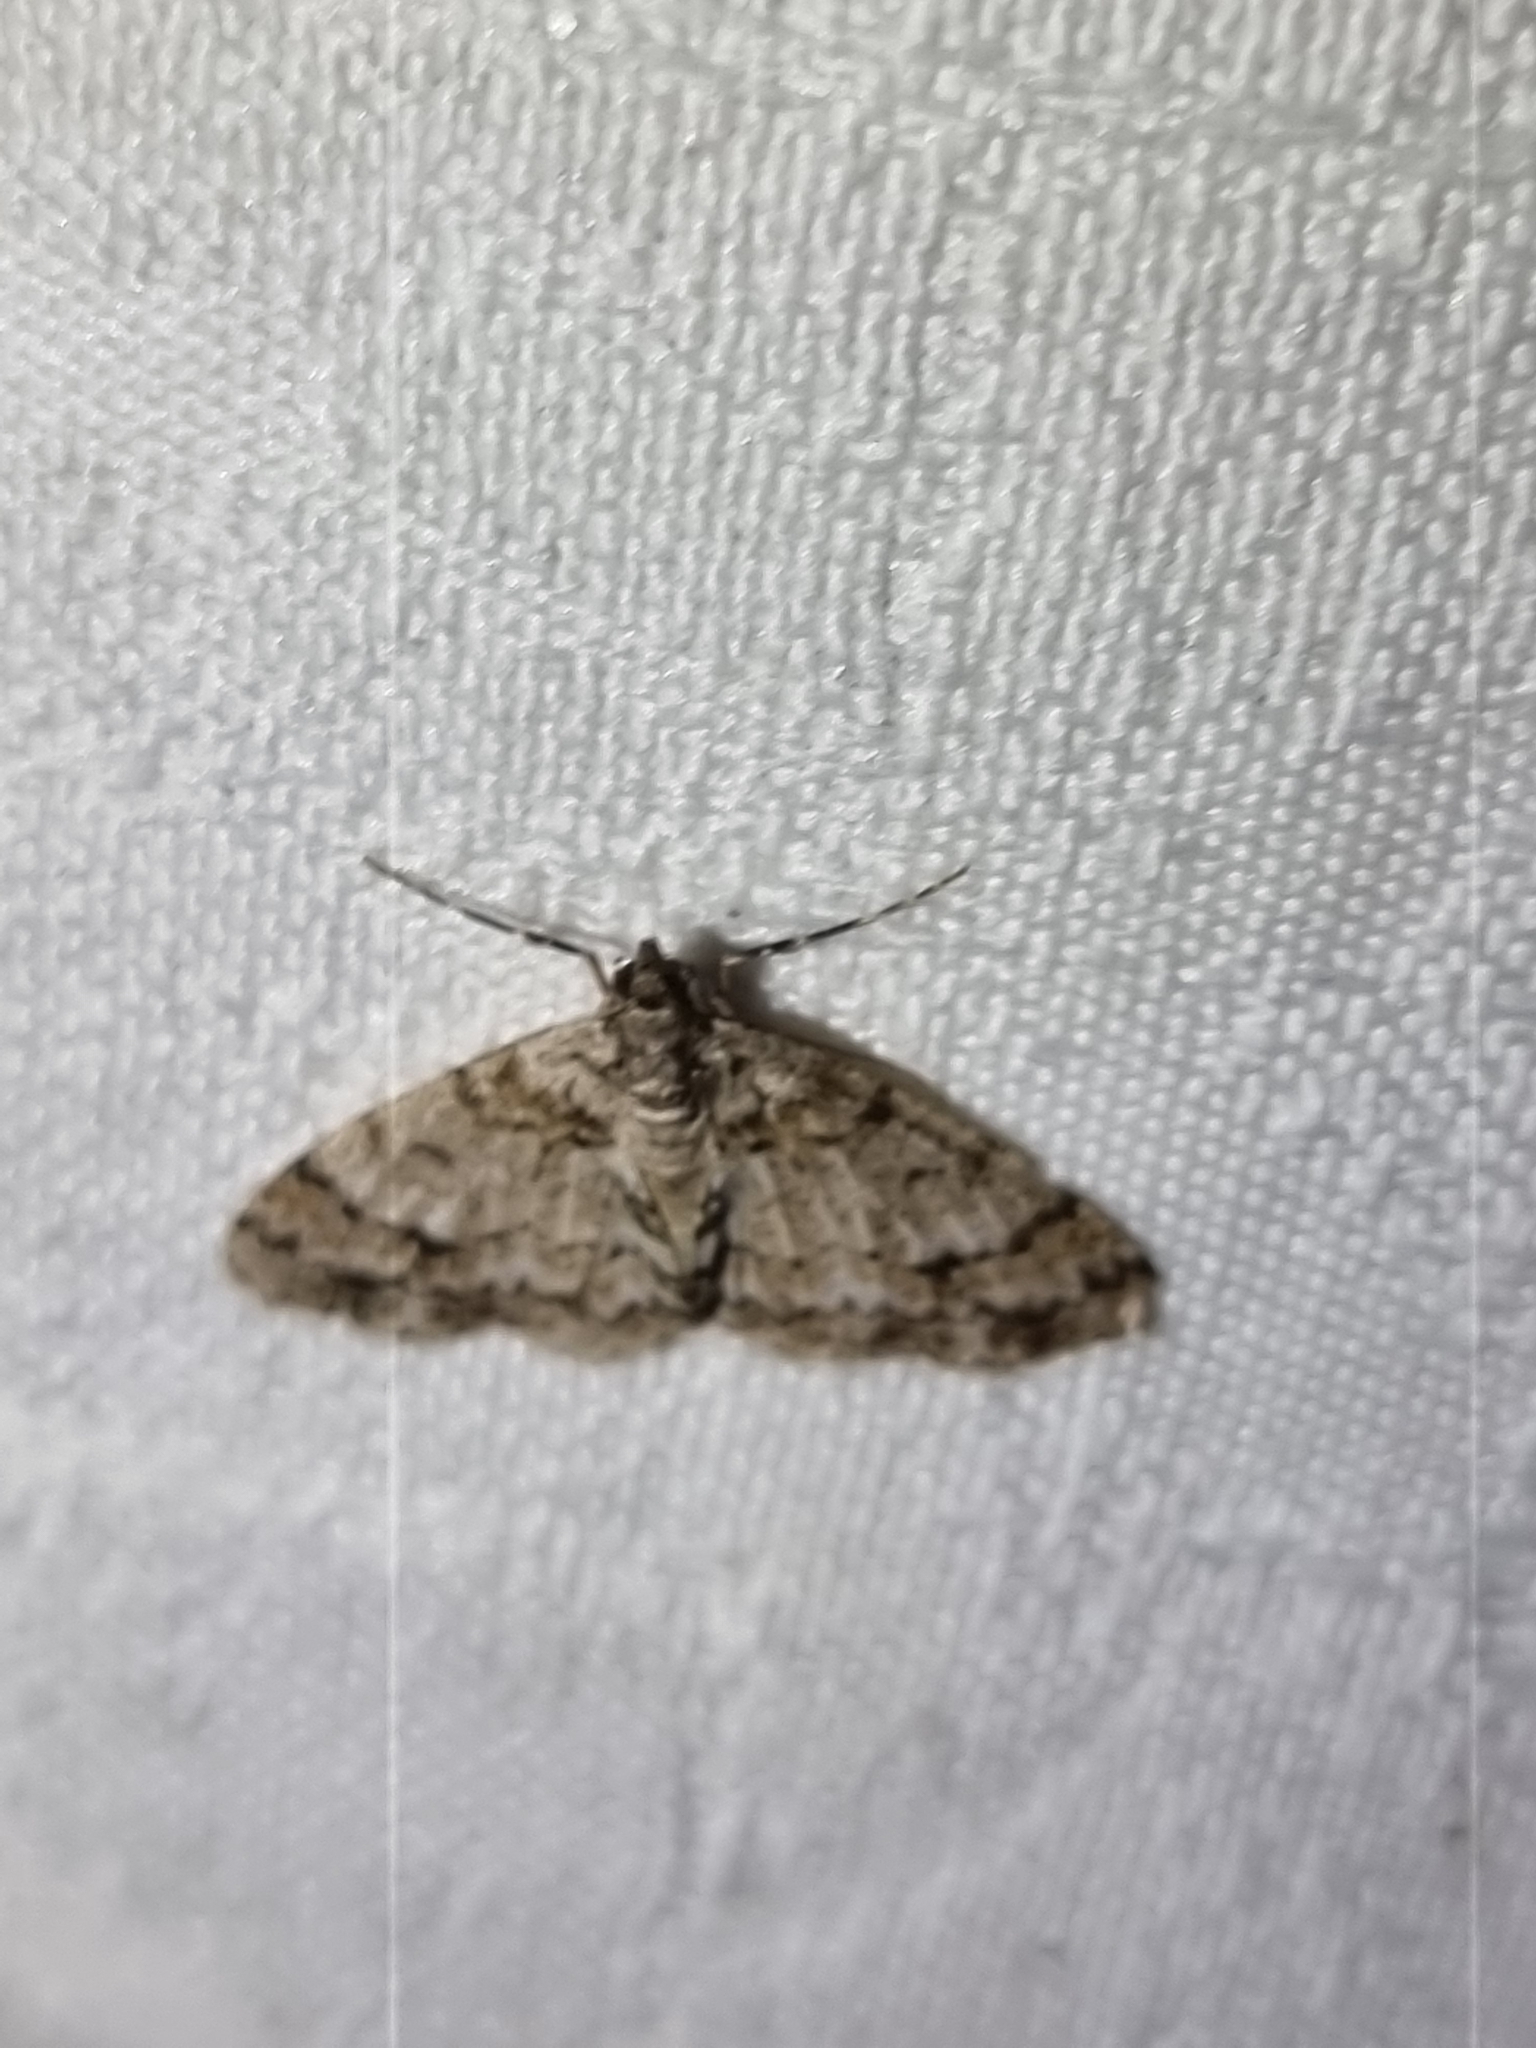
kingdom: Animalia
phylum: Arthropoda
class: Insecta
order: Lepidoptera
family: Geometridae
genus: Myrioblephara
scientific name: Myrioblephara desumpta
